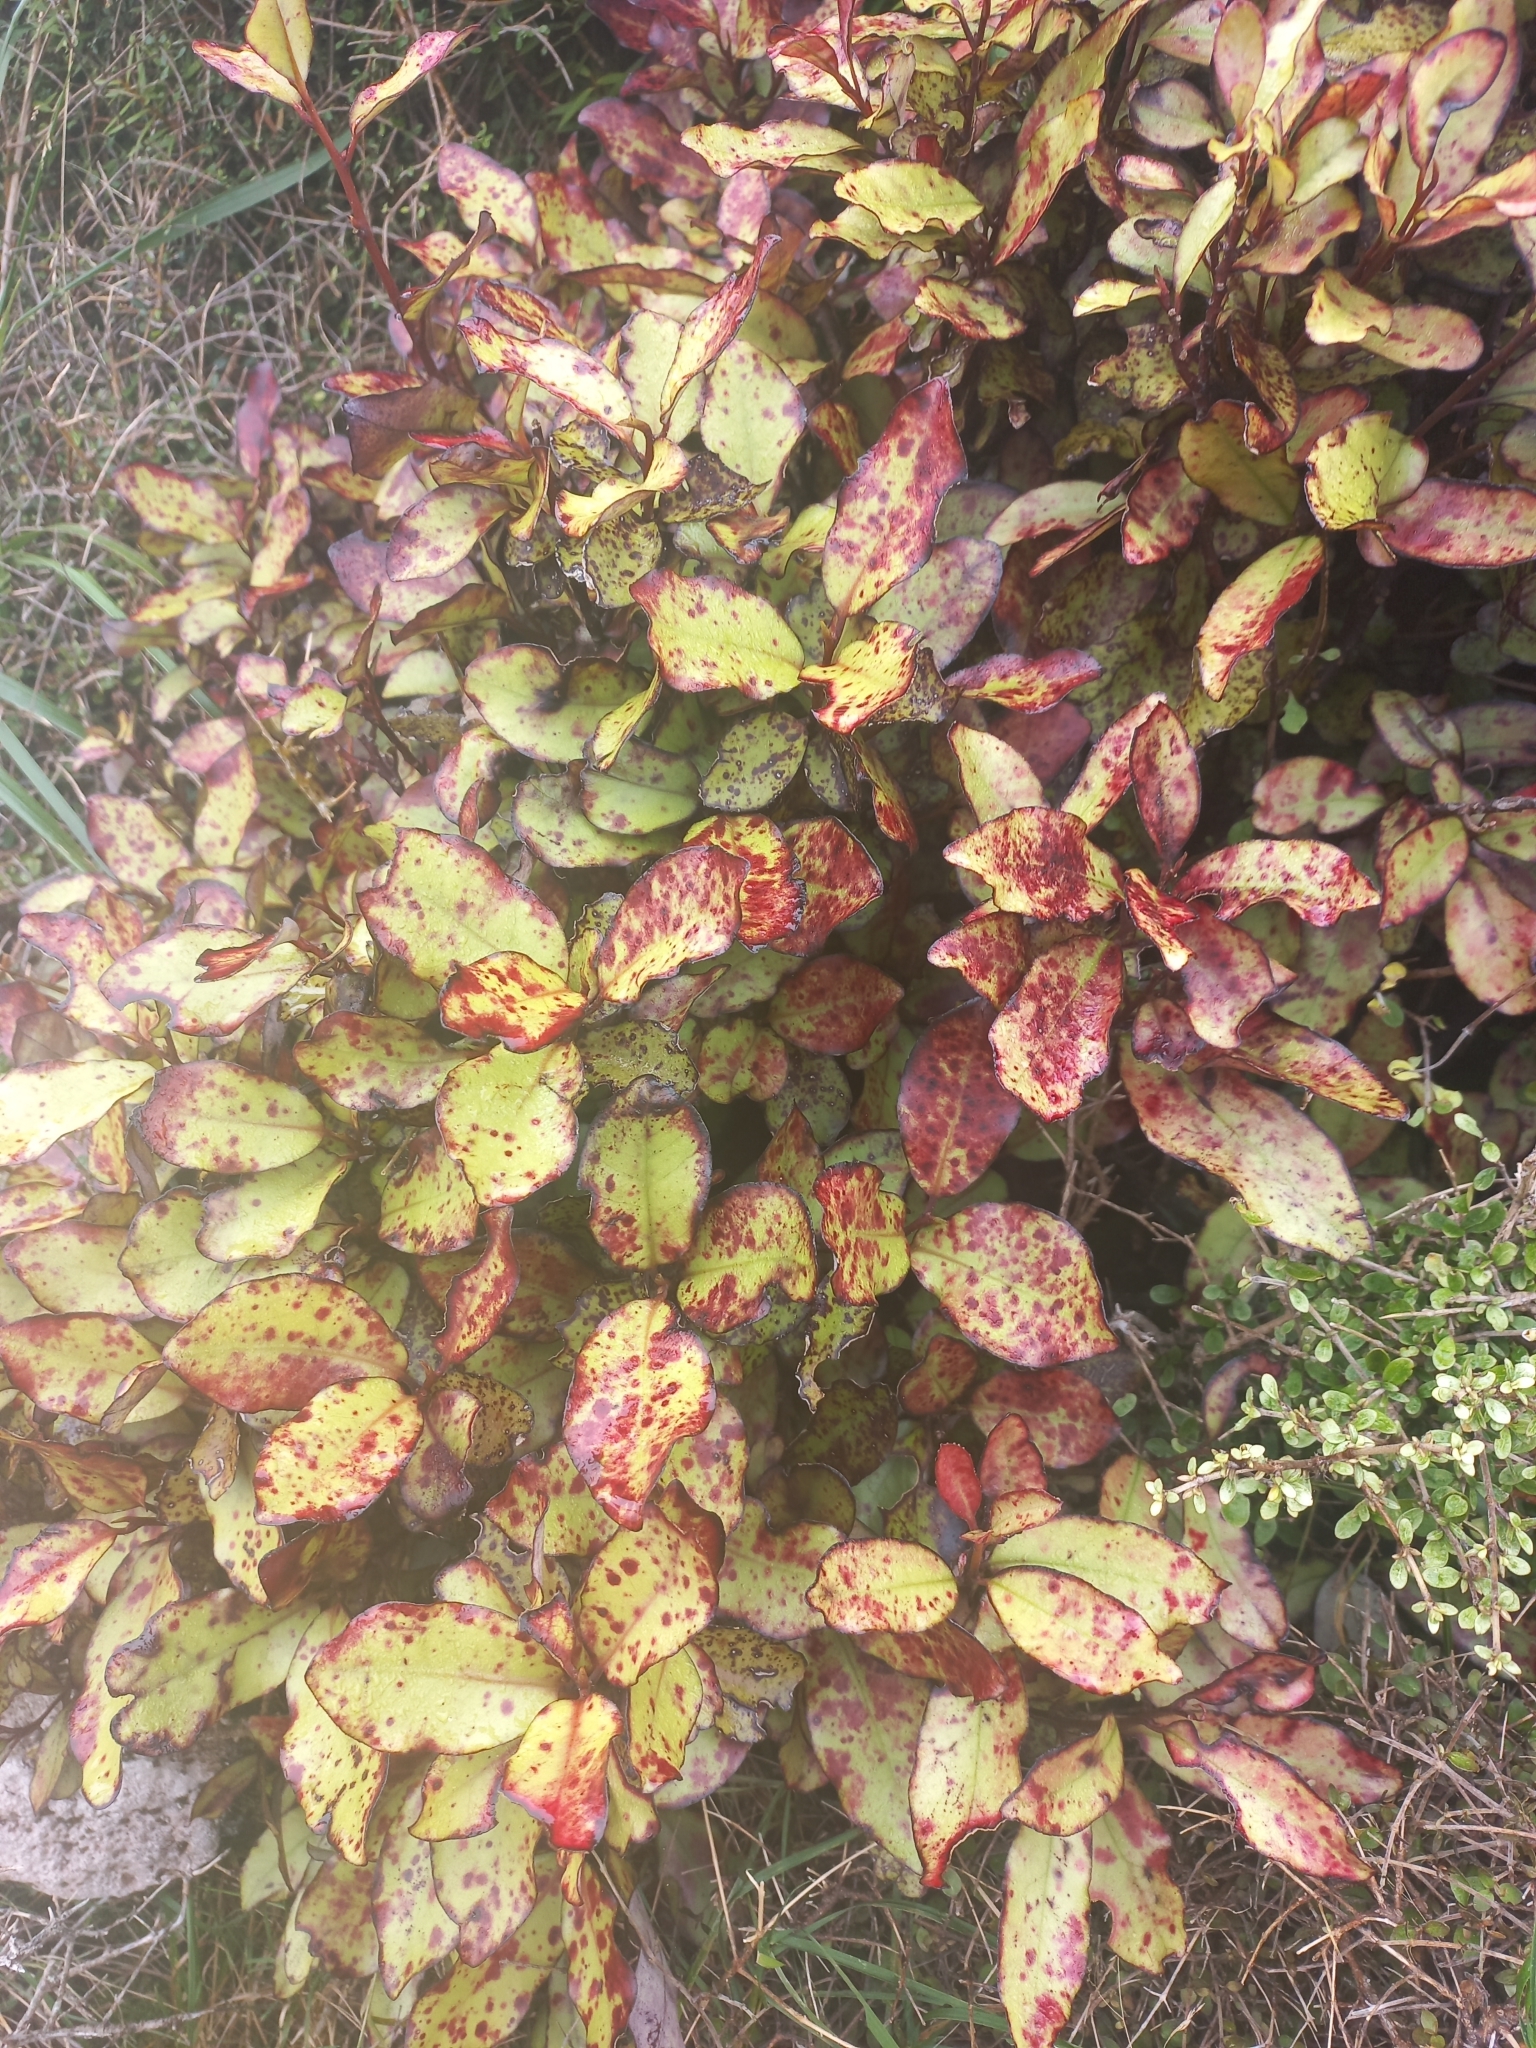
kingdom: Plantae
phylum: Tracheophyta
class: Magnoliopsida
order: Canellales
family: Winteraceae
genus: Pseudowintera
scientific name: Pseudowintera colorata
